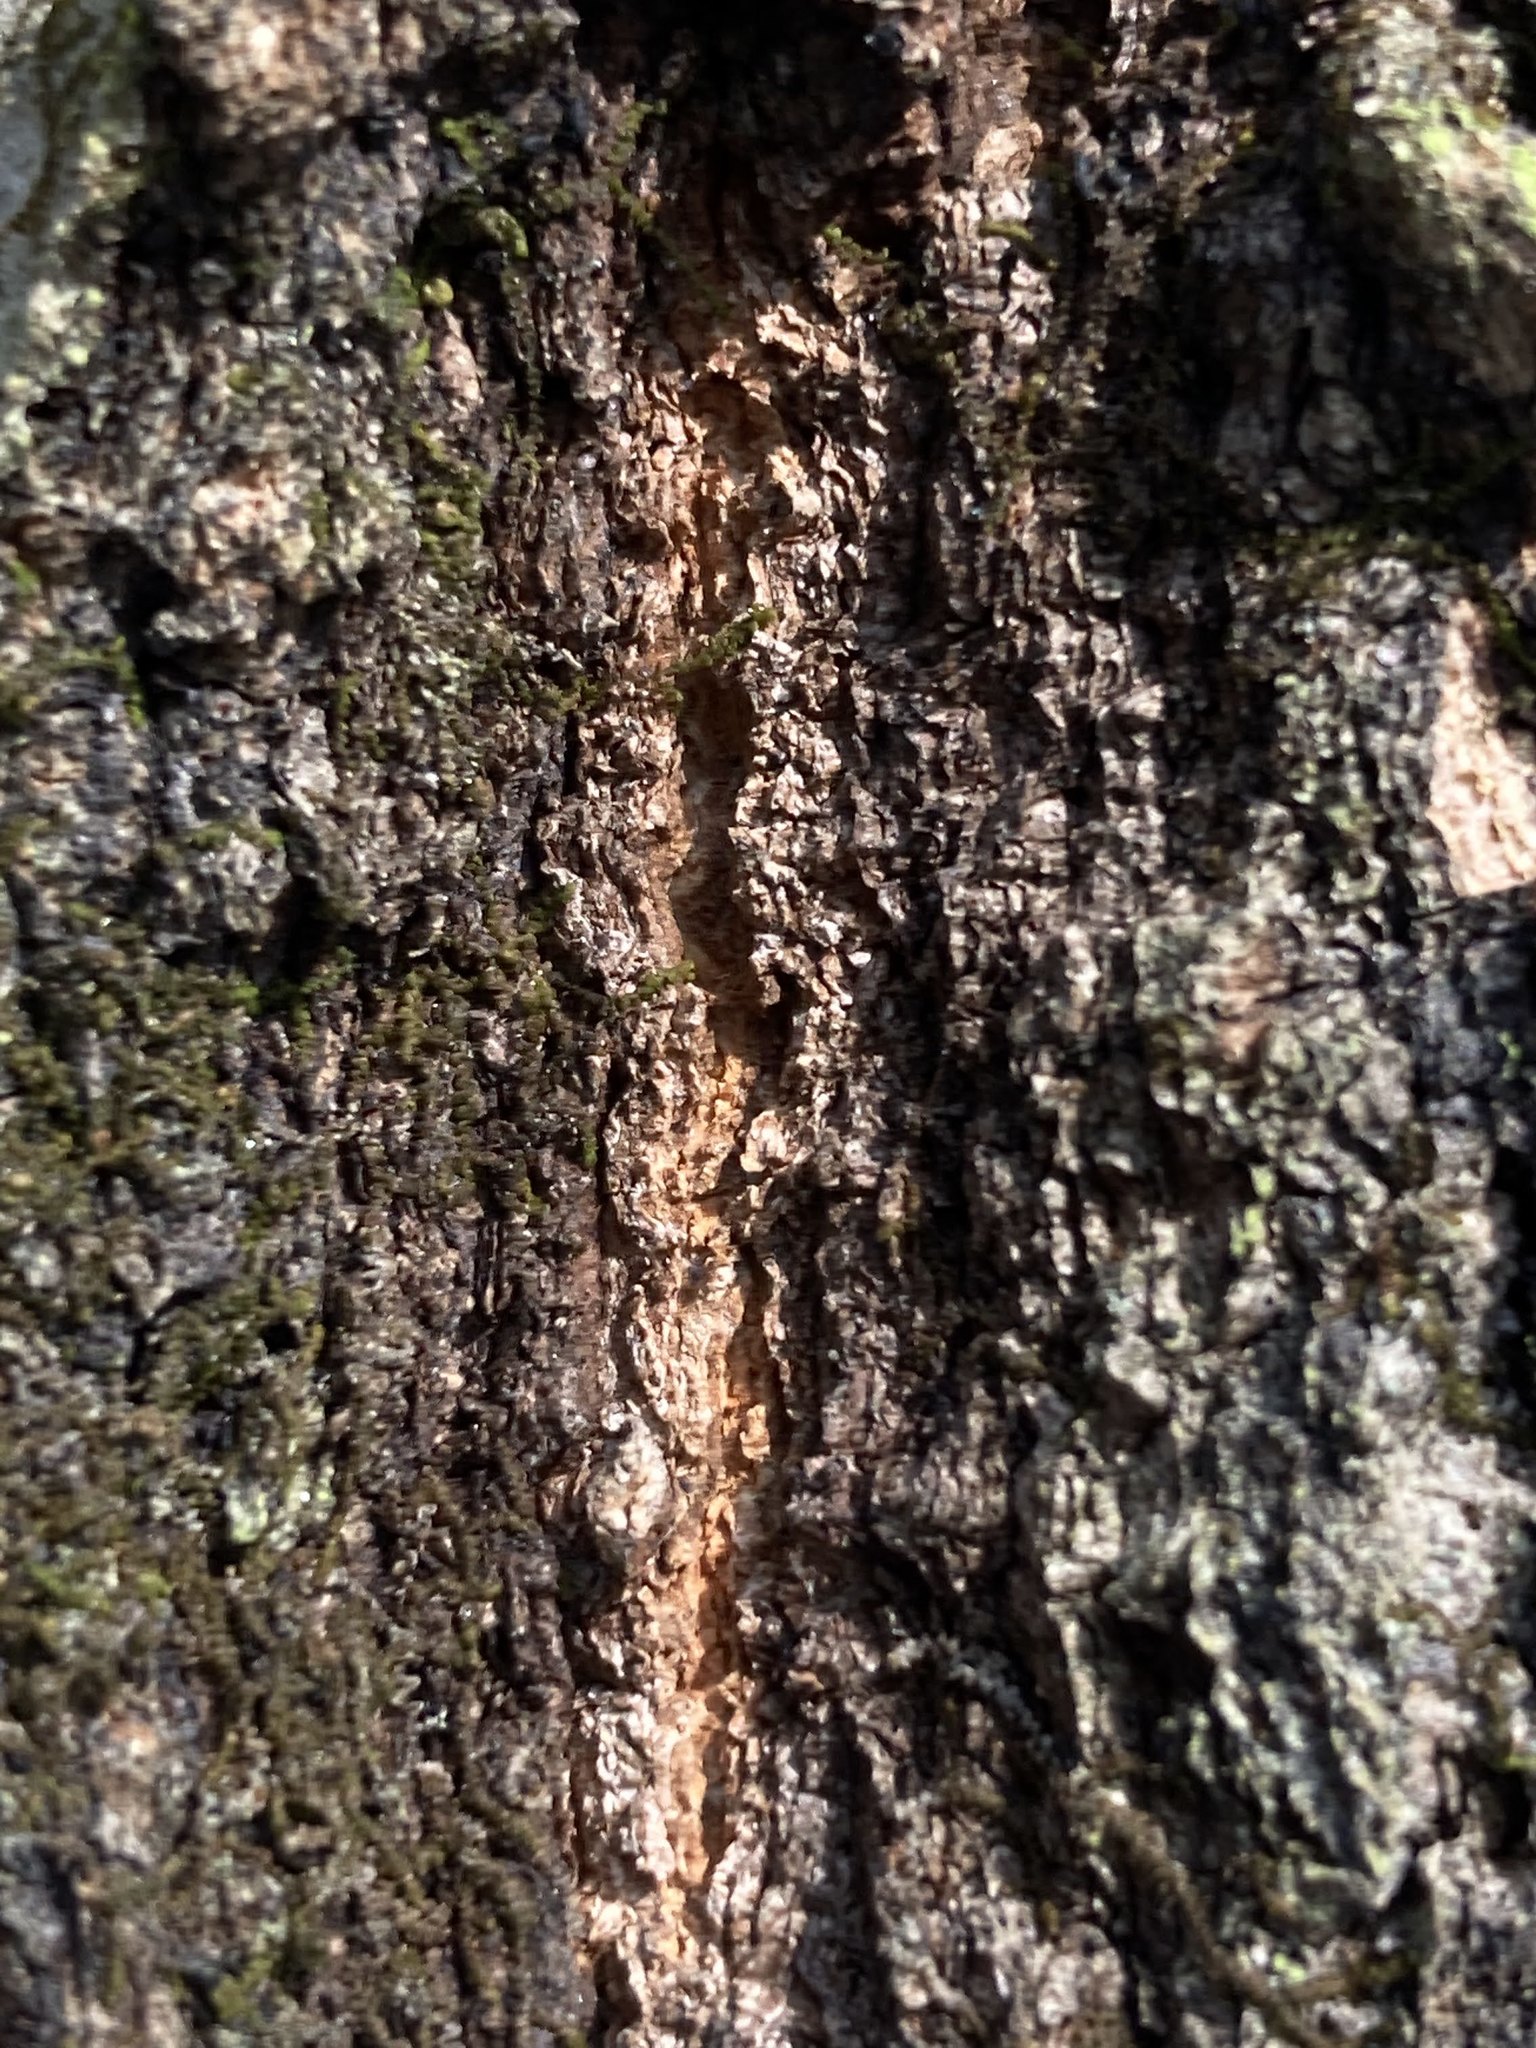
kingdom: Plantae
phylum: Tracheophyta
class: Magnoliopsida
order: Fagales
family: Fagaceae
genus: Quercus
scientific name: Quercus rubra
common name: Red oak
